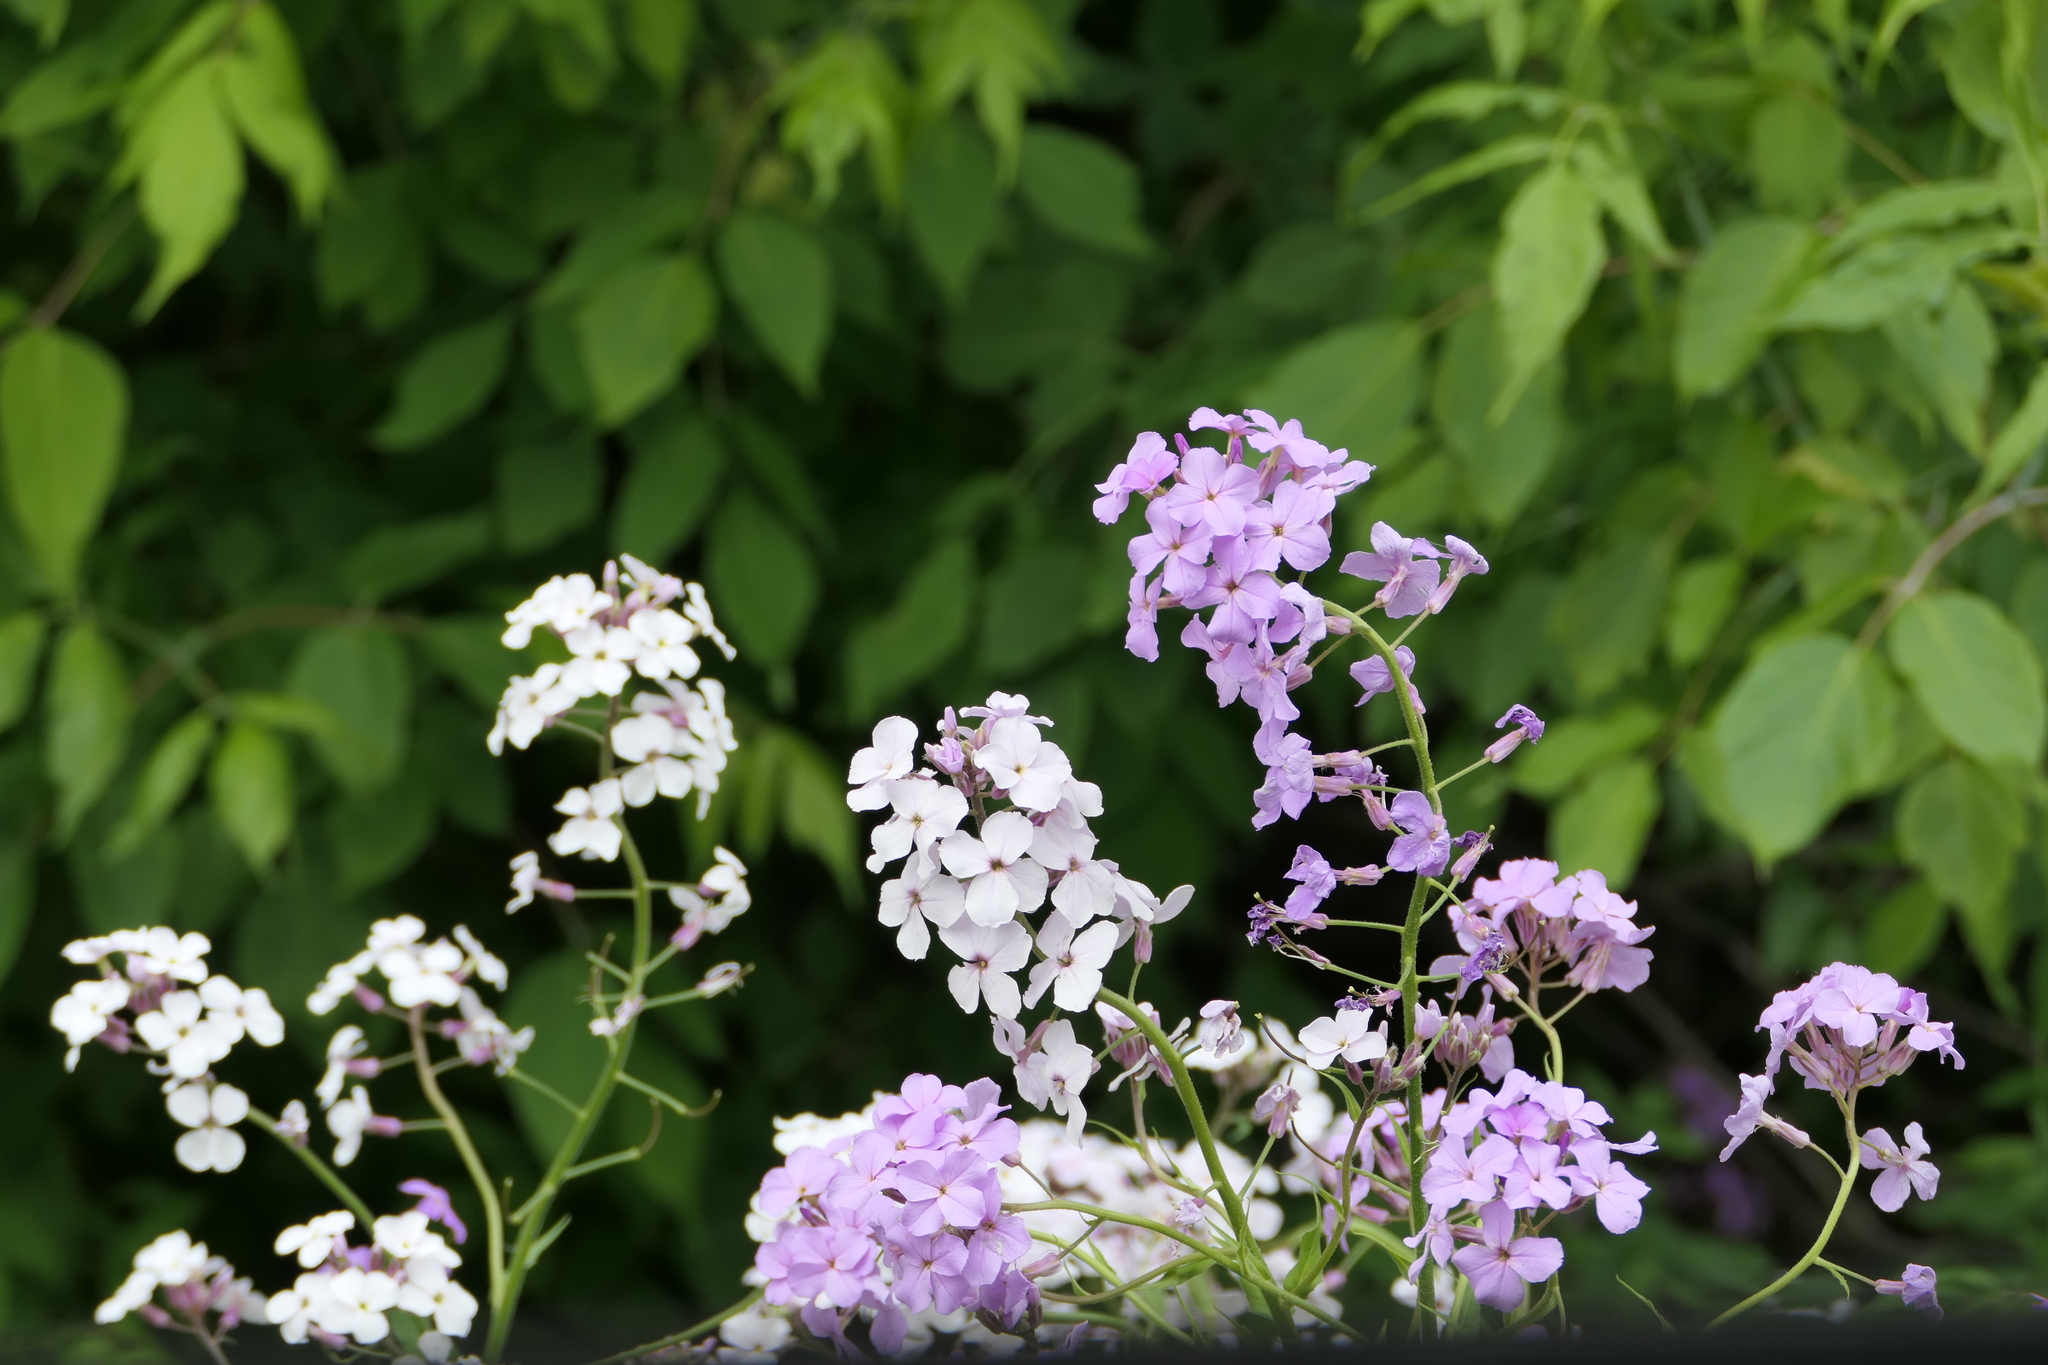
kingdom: Plantae
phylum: Tracheophyta
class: Magnoliopsida
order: Brassicales
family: Brassicaceae
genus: Hesperis
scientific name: Hesperis matronalis
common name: Dame's-violet
